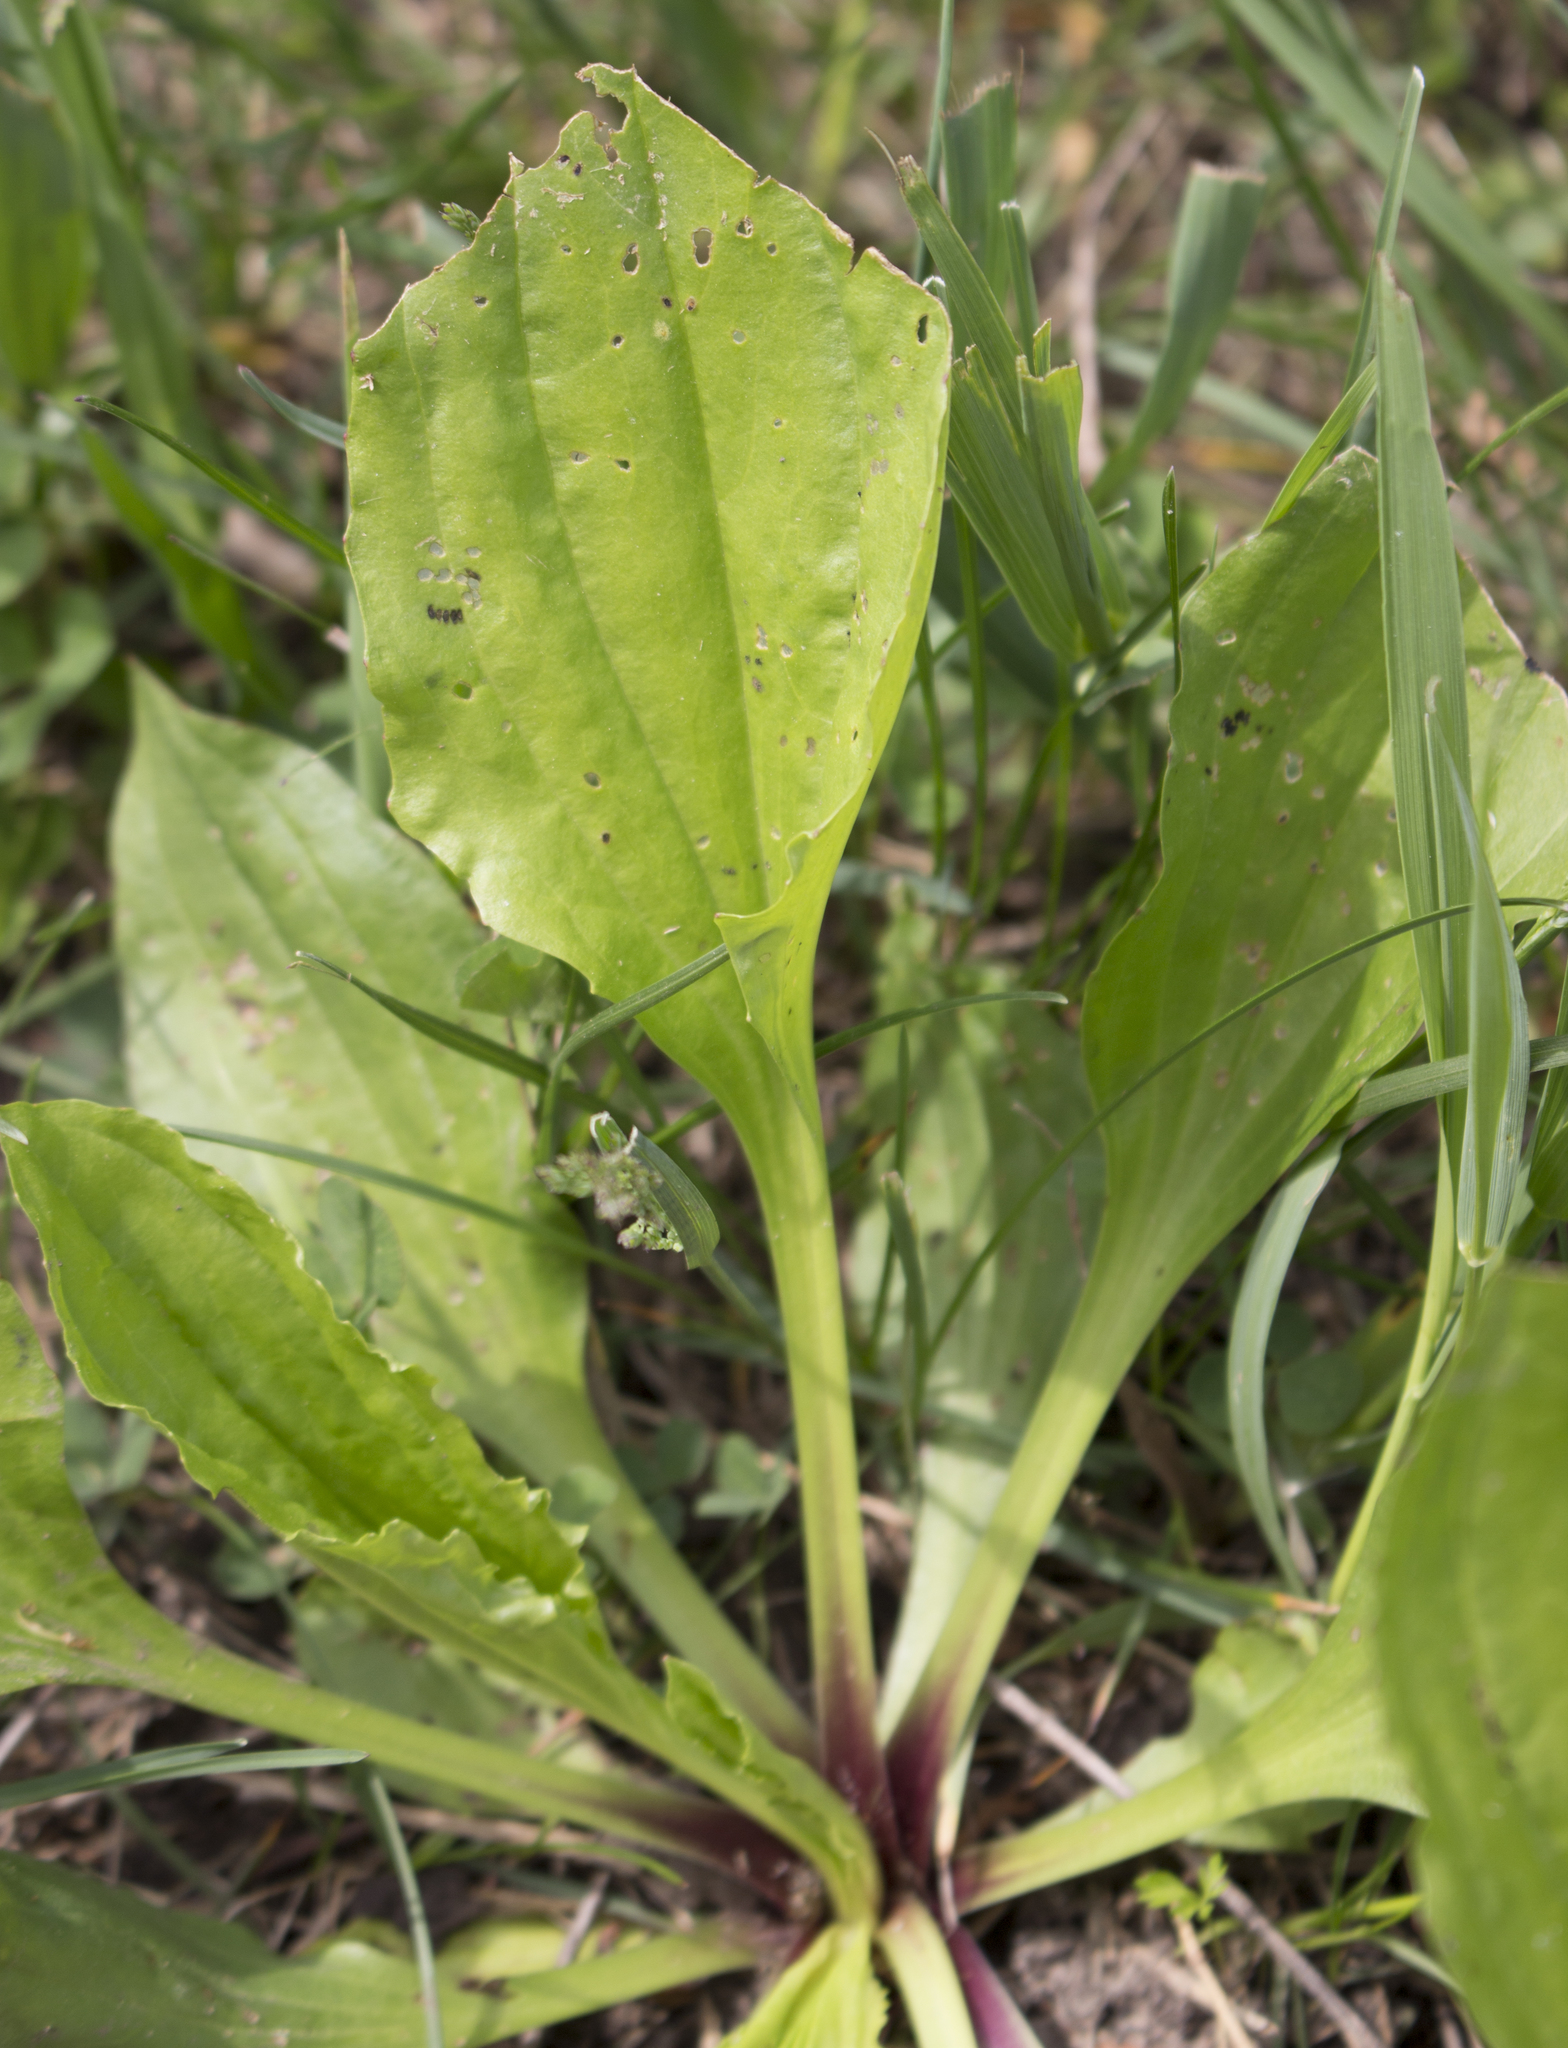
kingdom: Plantae
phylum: Tracheophyta
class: Magnoliopsida
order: Lamiales
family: Plantaginaceae
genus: Plantago
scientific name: Plantago rugelii
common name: American plantain
